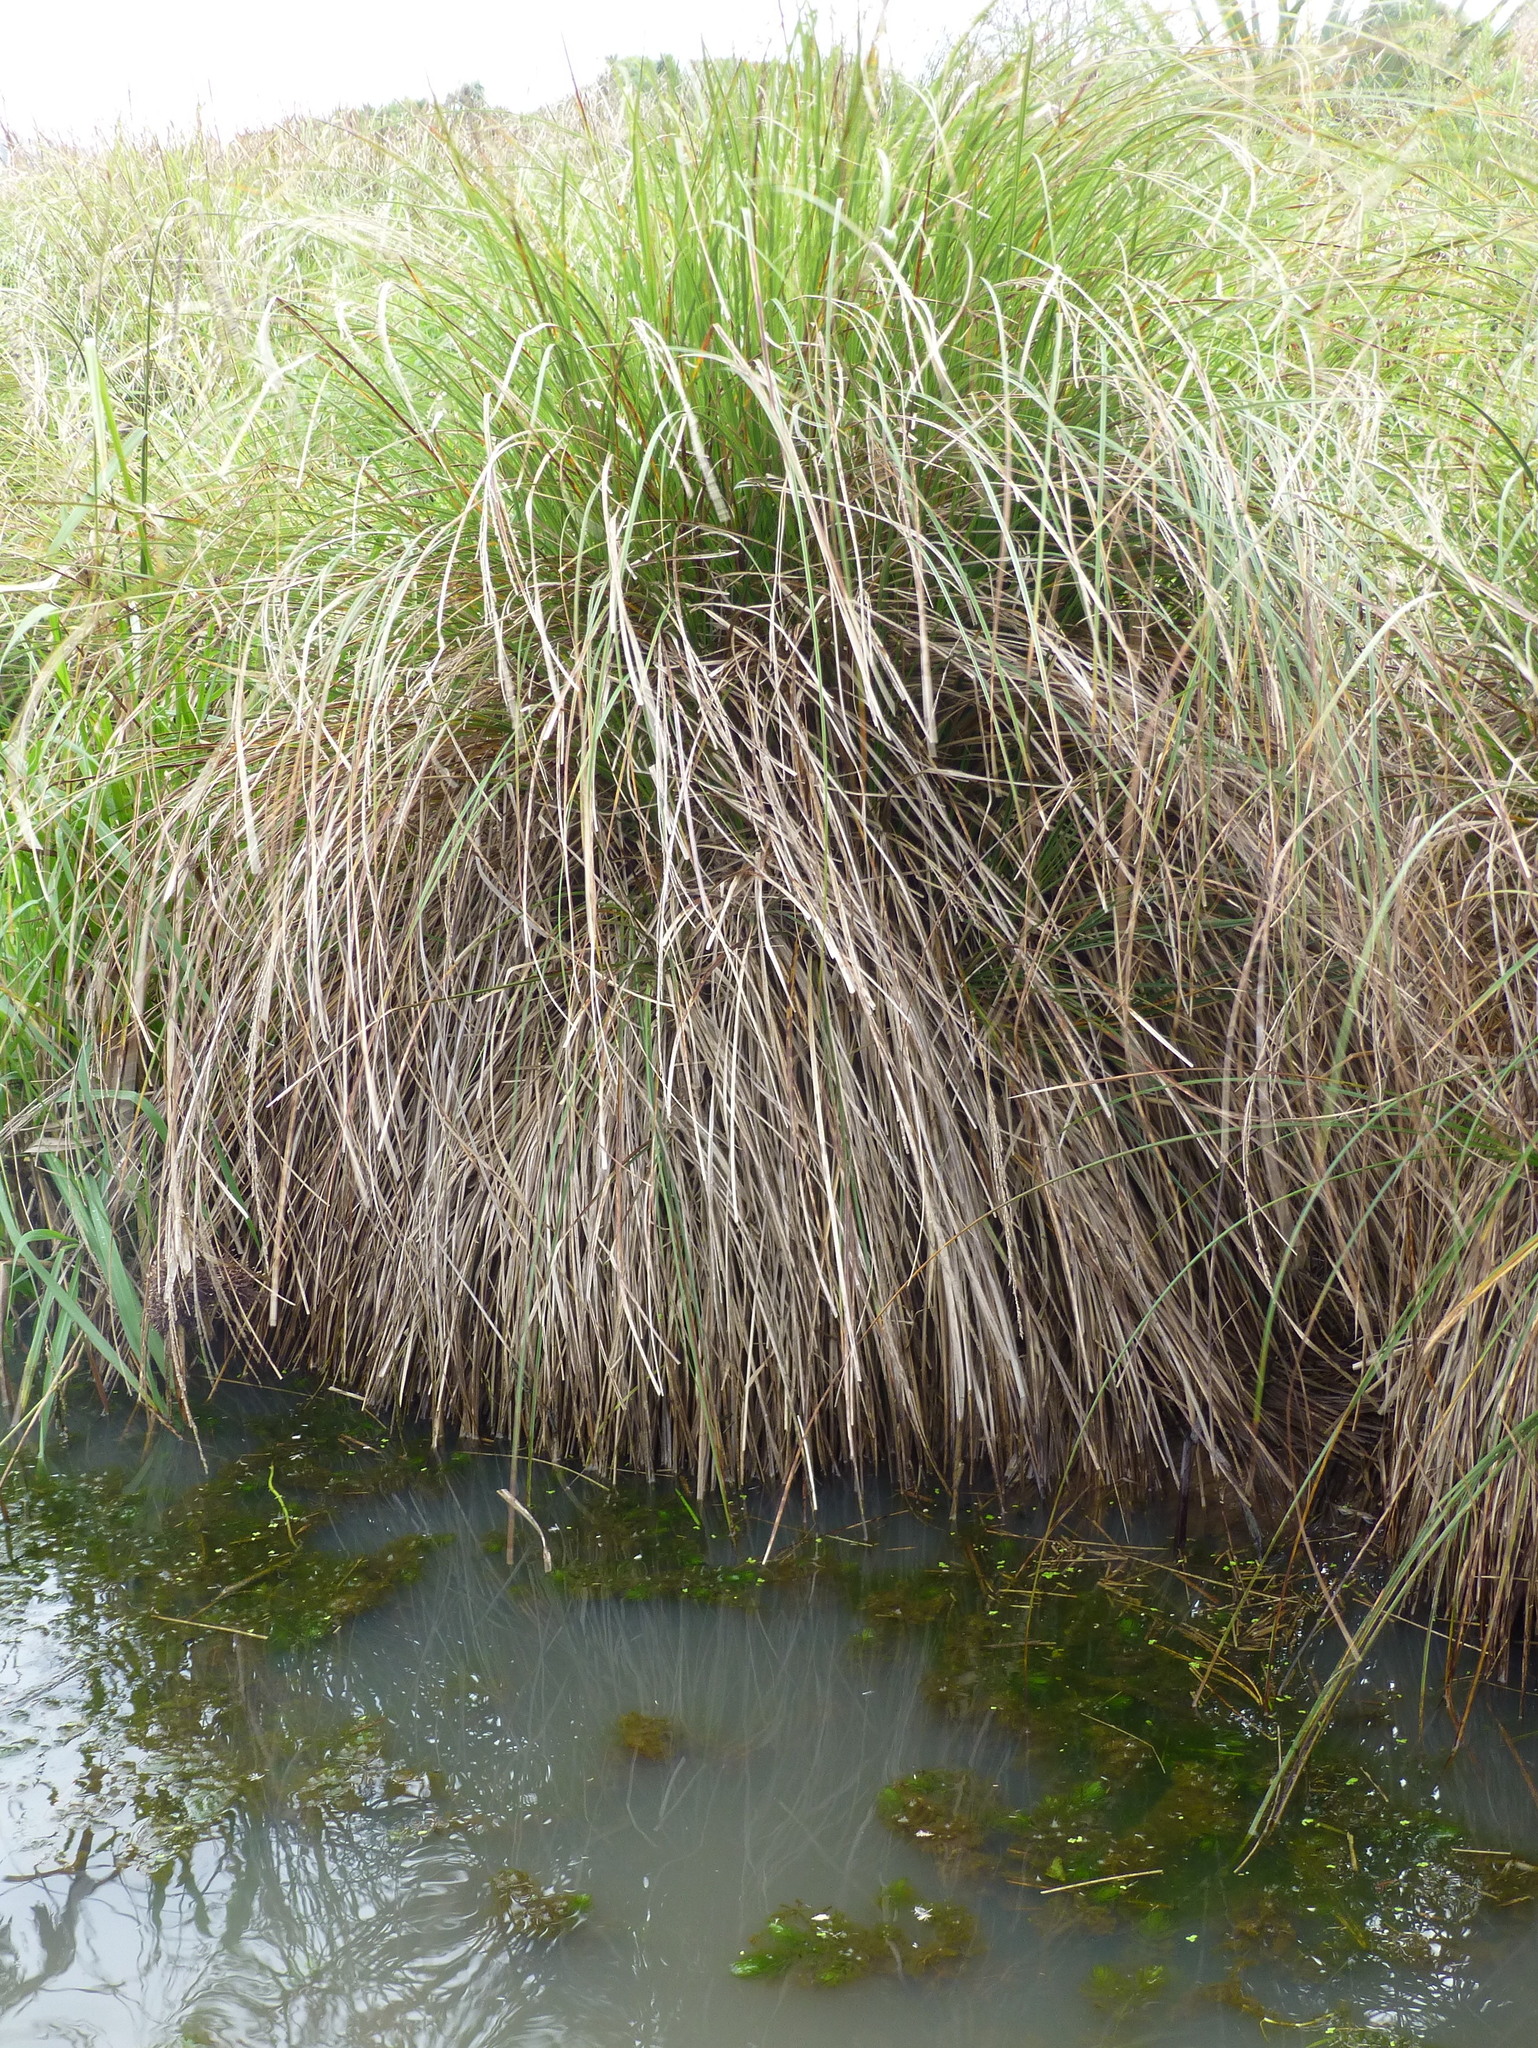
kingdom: Plantae
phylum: Tracheophyta
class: Liliopsida
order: Poales
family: Cyperaceae
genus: Carex
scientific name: Carex secta
